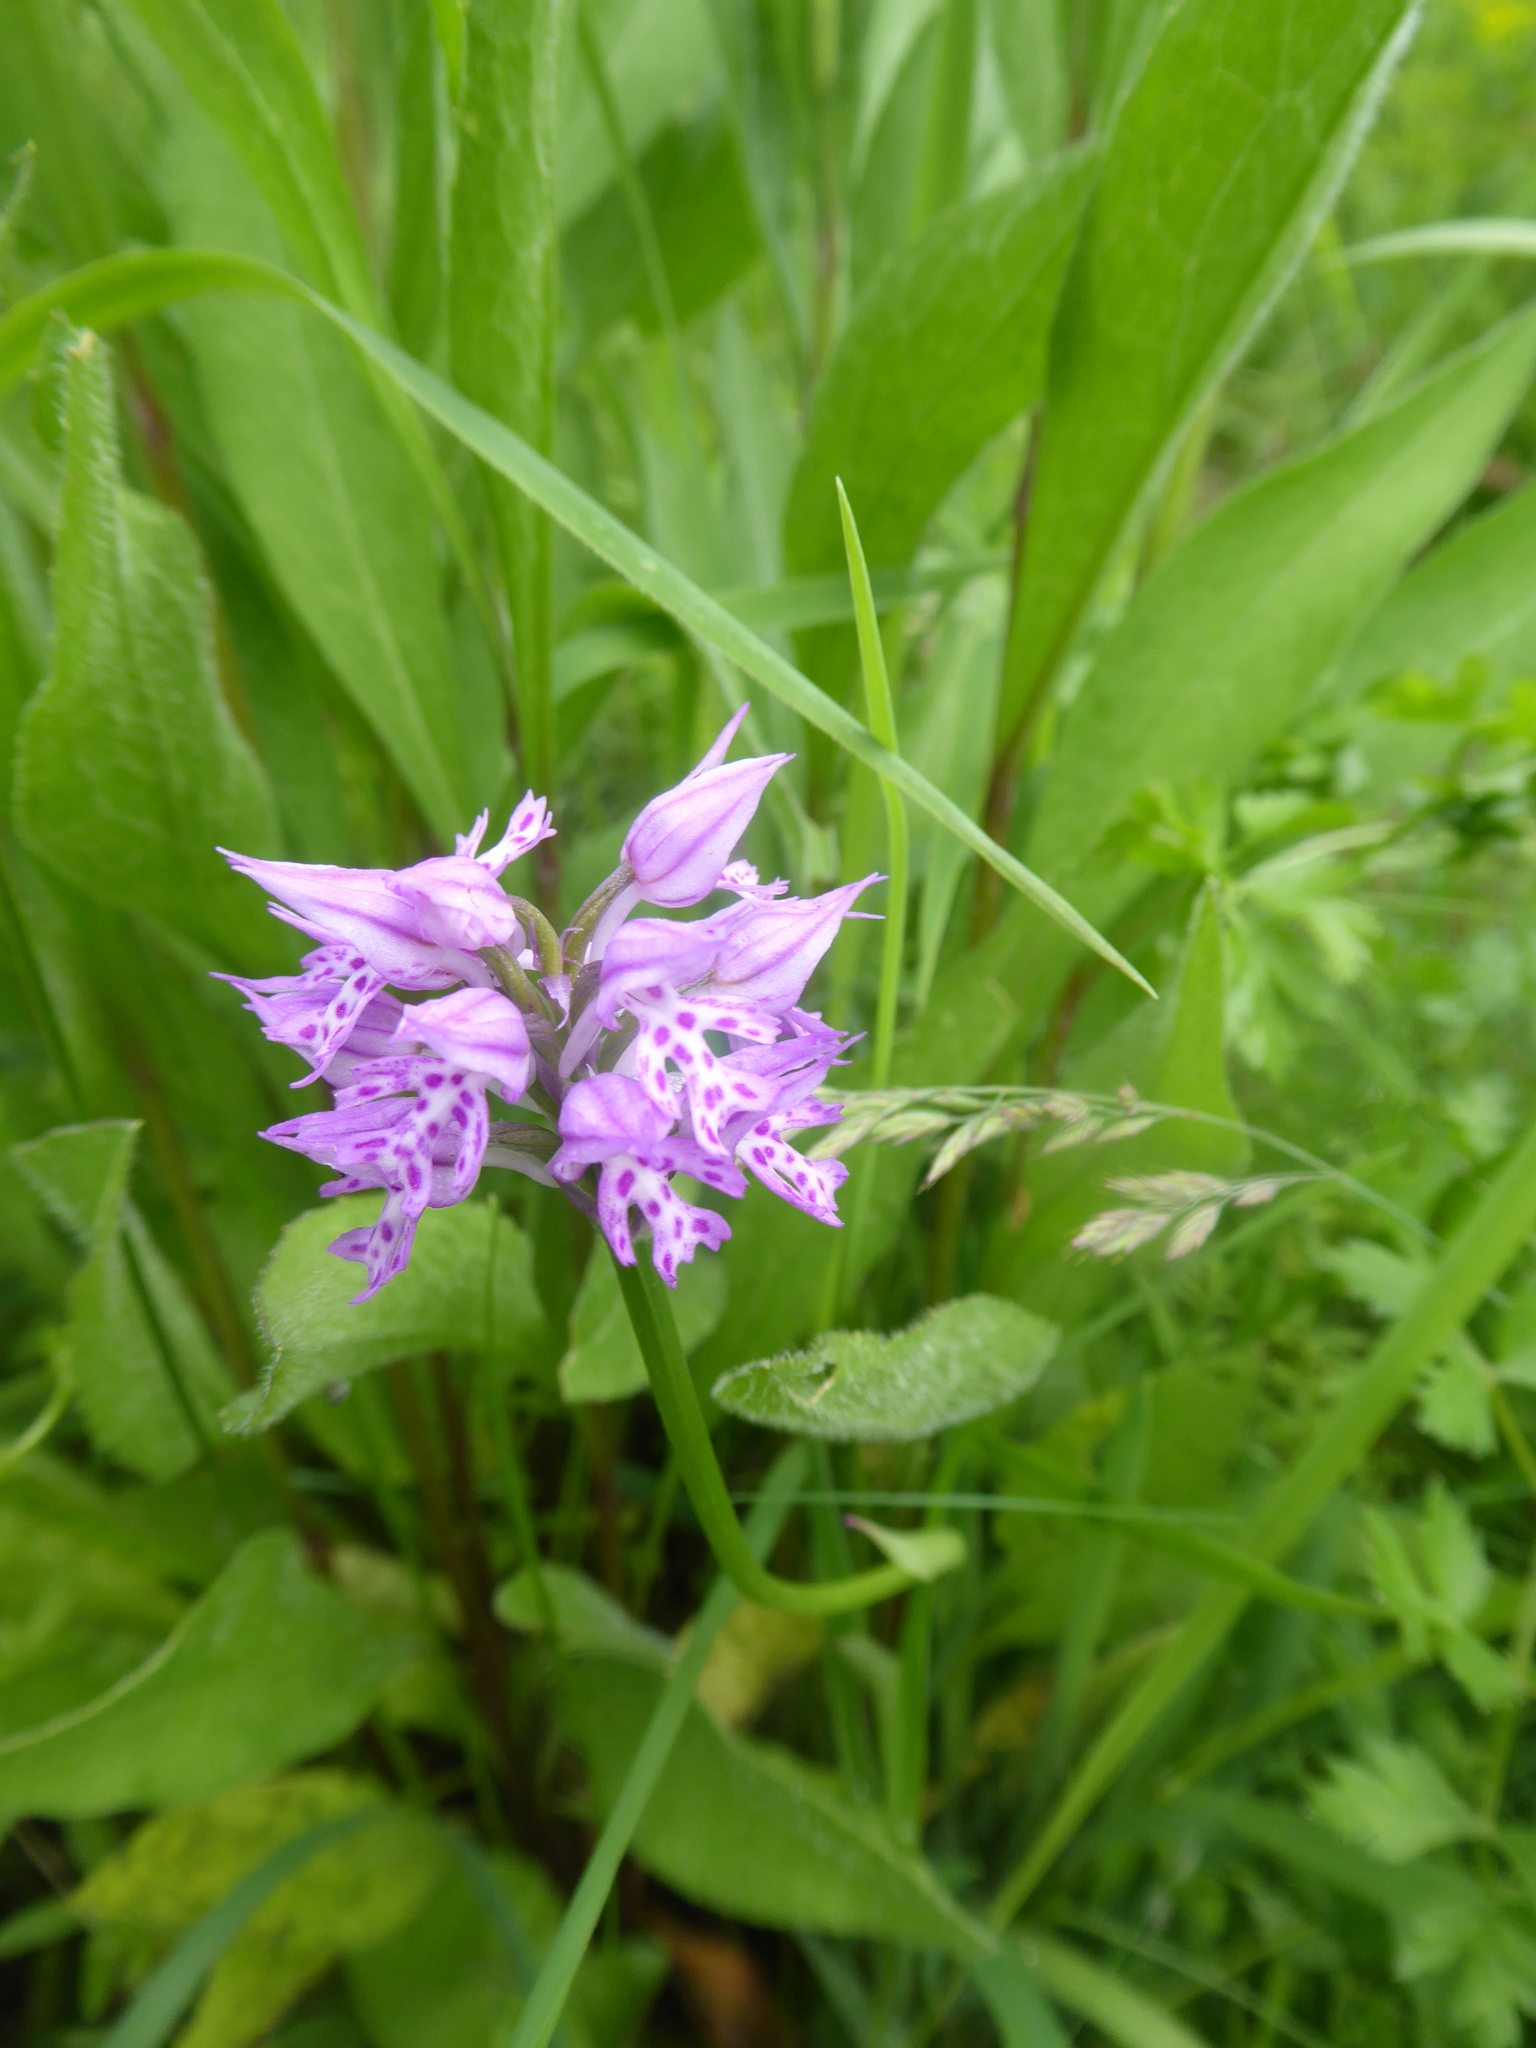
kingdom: Plantae
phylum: Tracheophyta
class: Liliopsida
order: Asparagales
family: Orchidaceae
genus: Neotinea
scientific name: Neotinea tridentata
